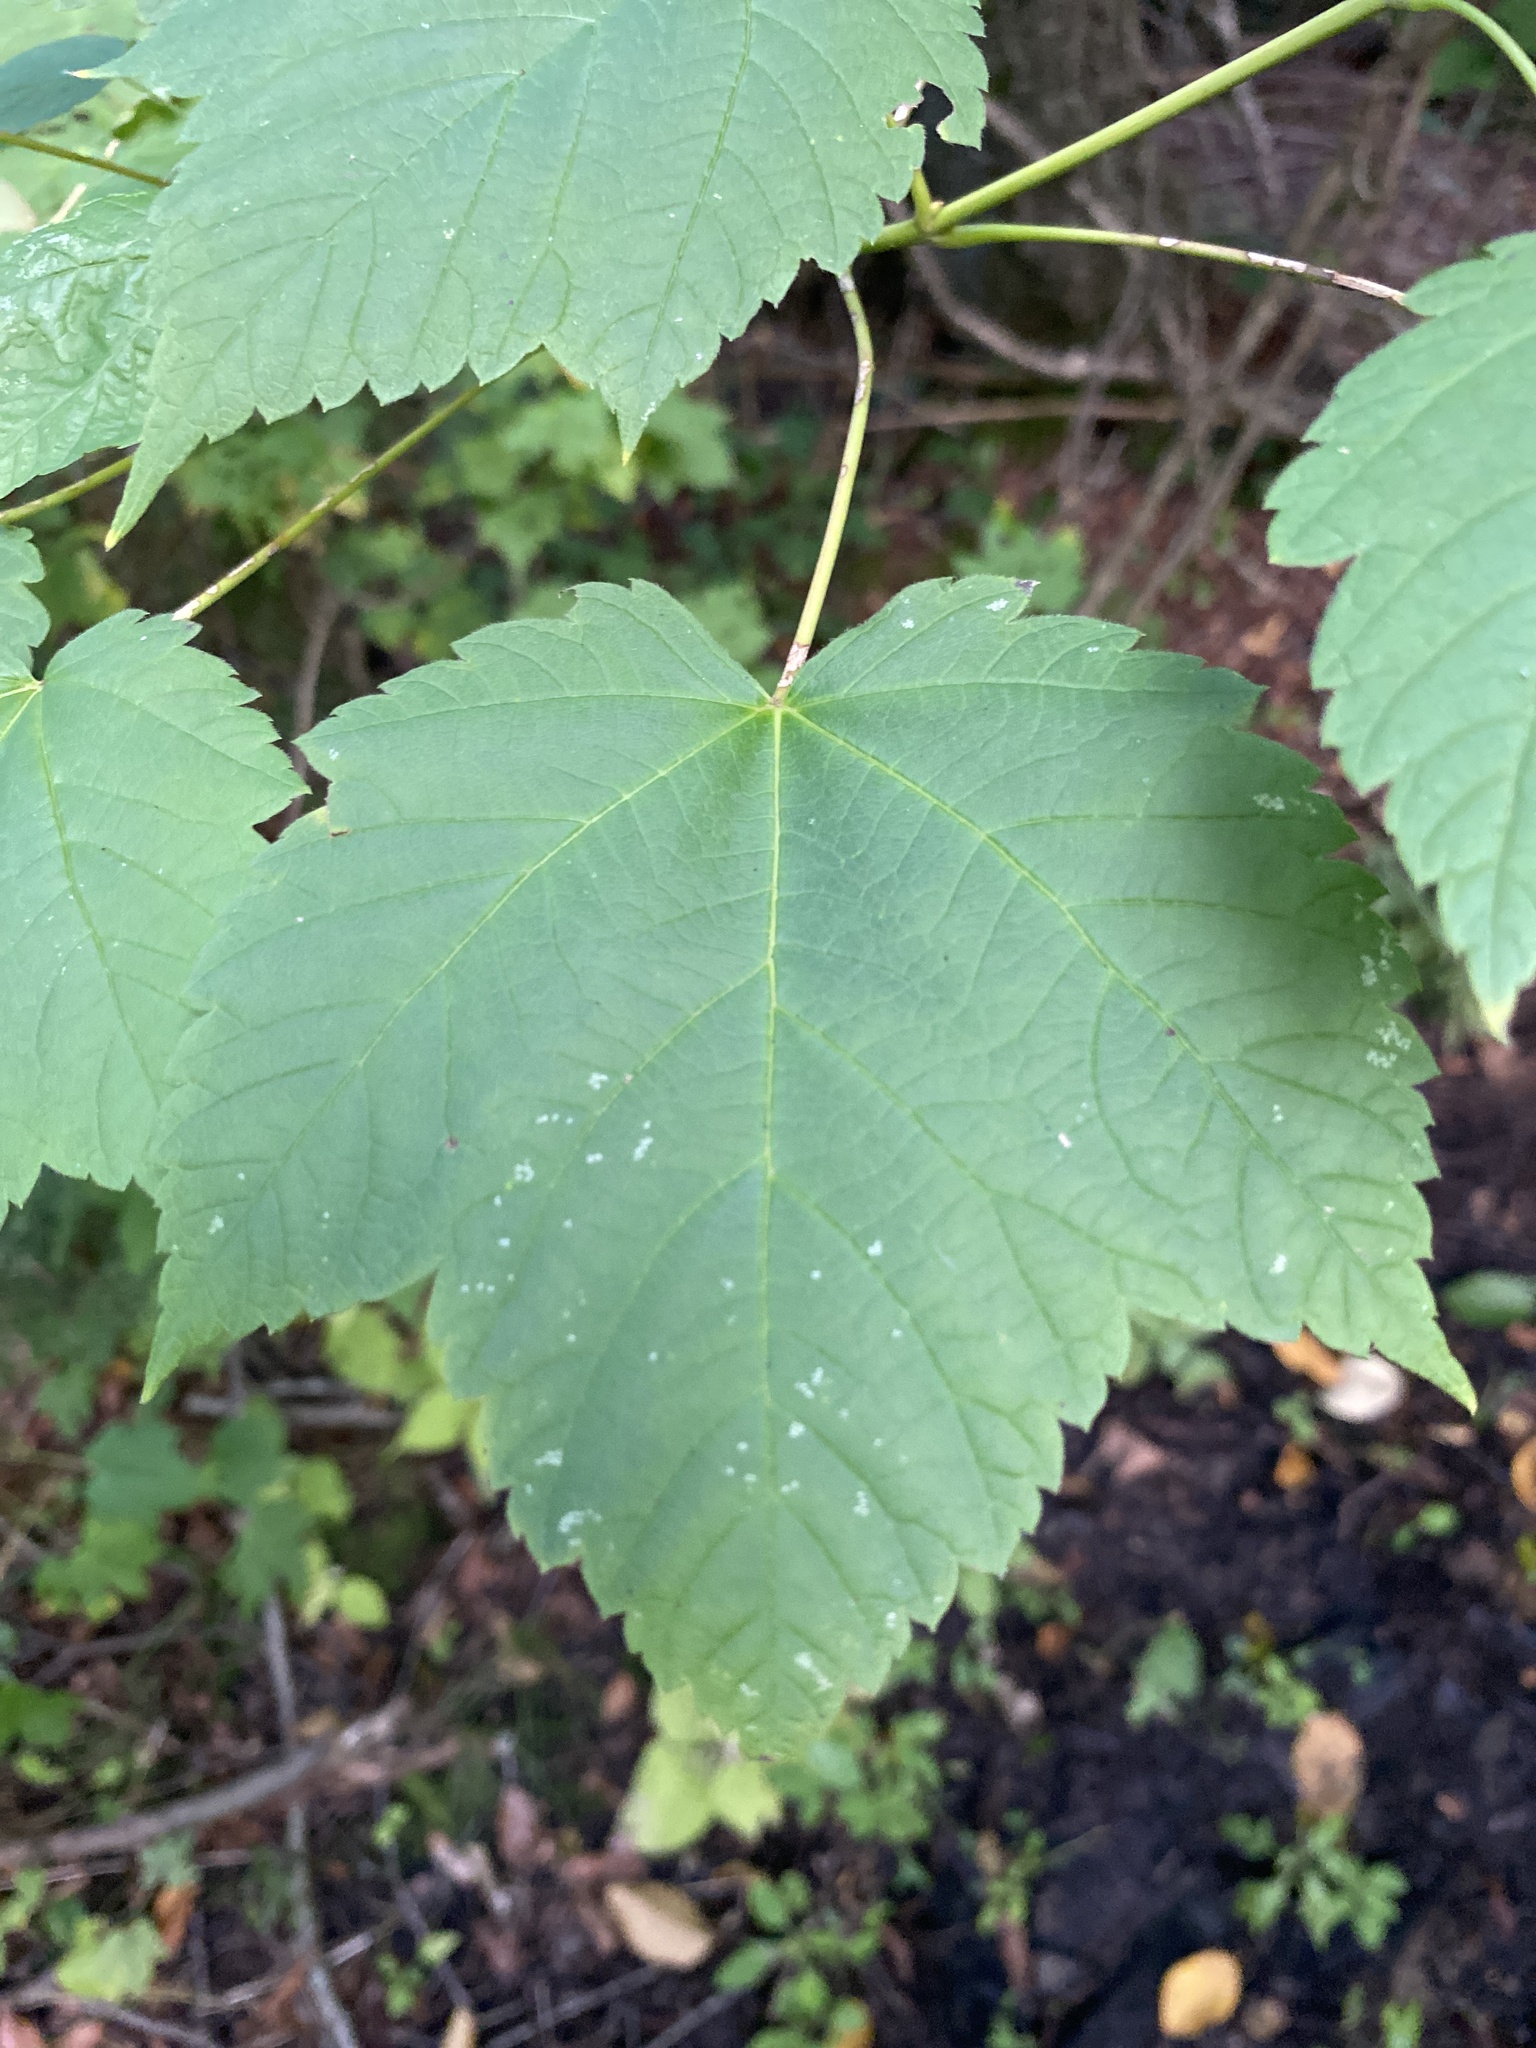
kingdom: Plantae
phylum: Tracheophyta
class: Magnoliopsida
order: Sapindales
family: Sapindaceae
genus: Acer
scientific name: Acer spicatum
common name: Mountain maple
